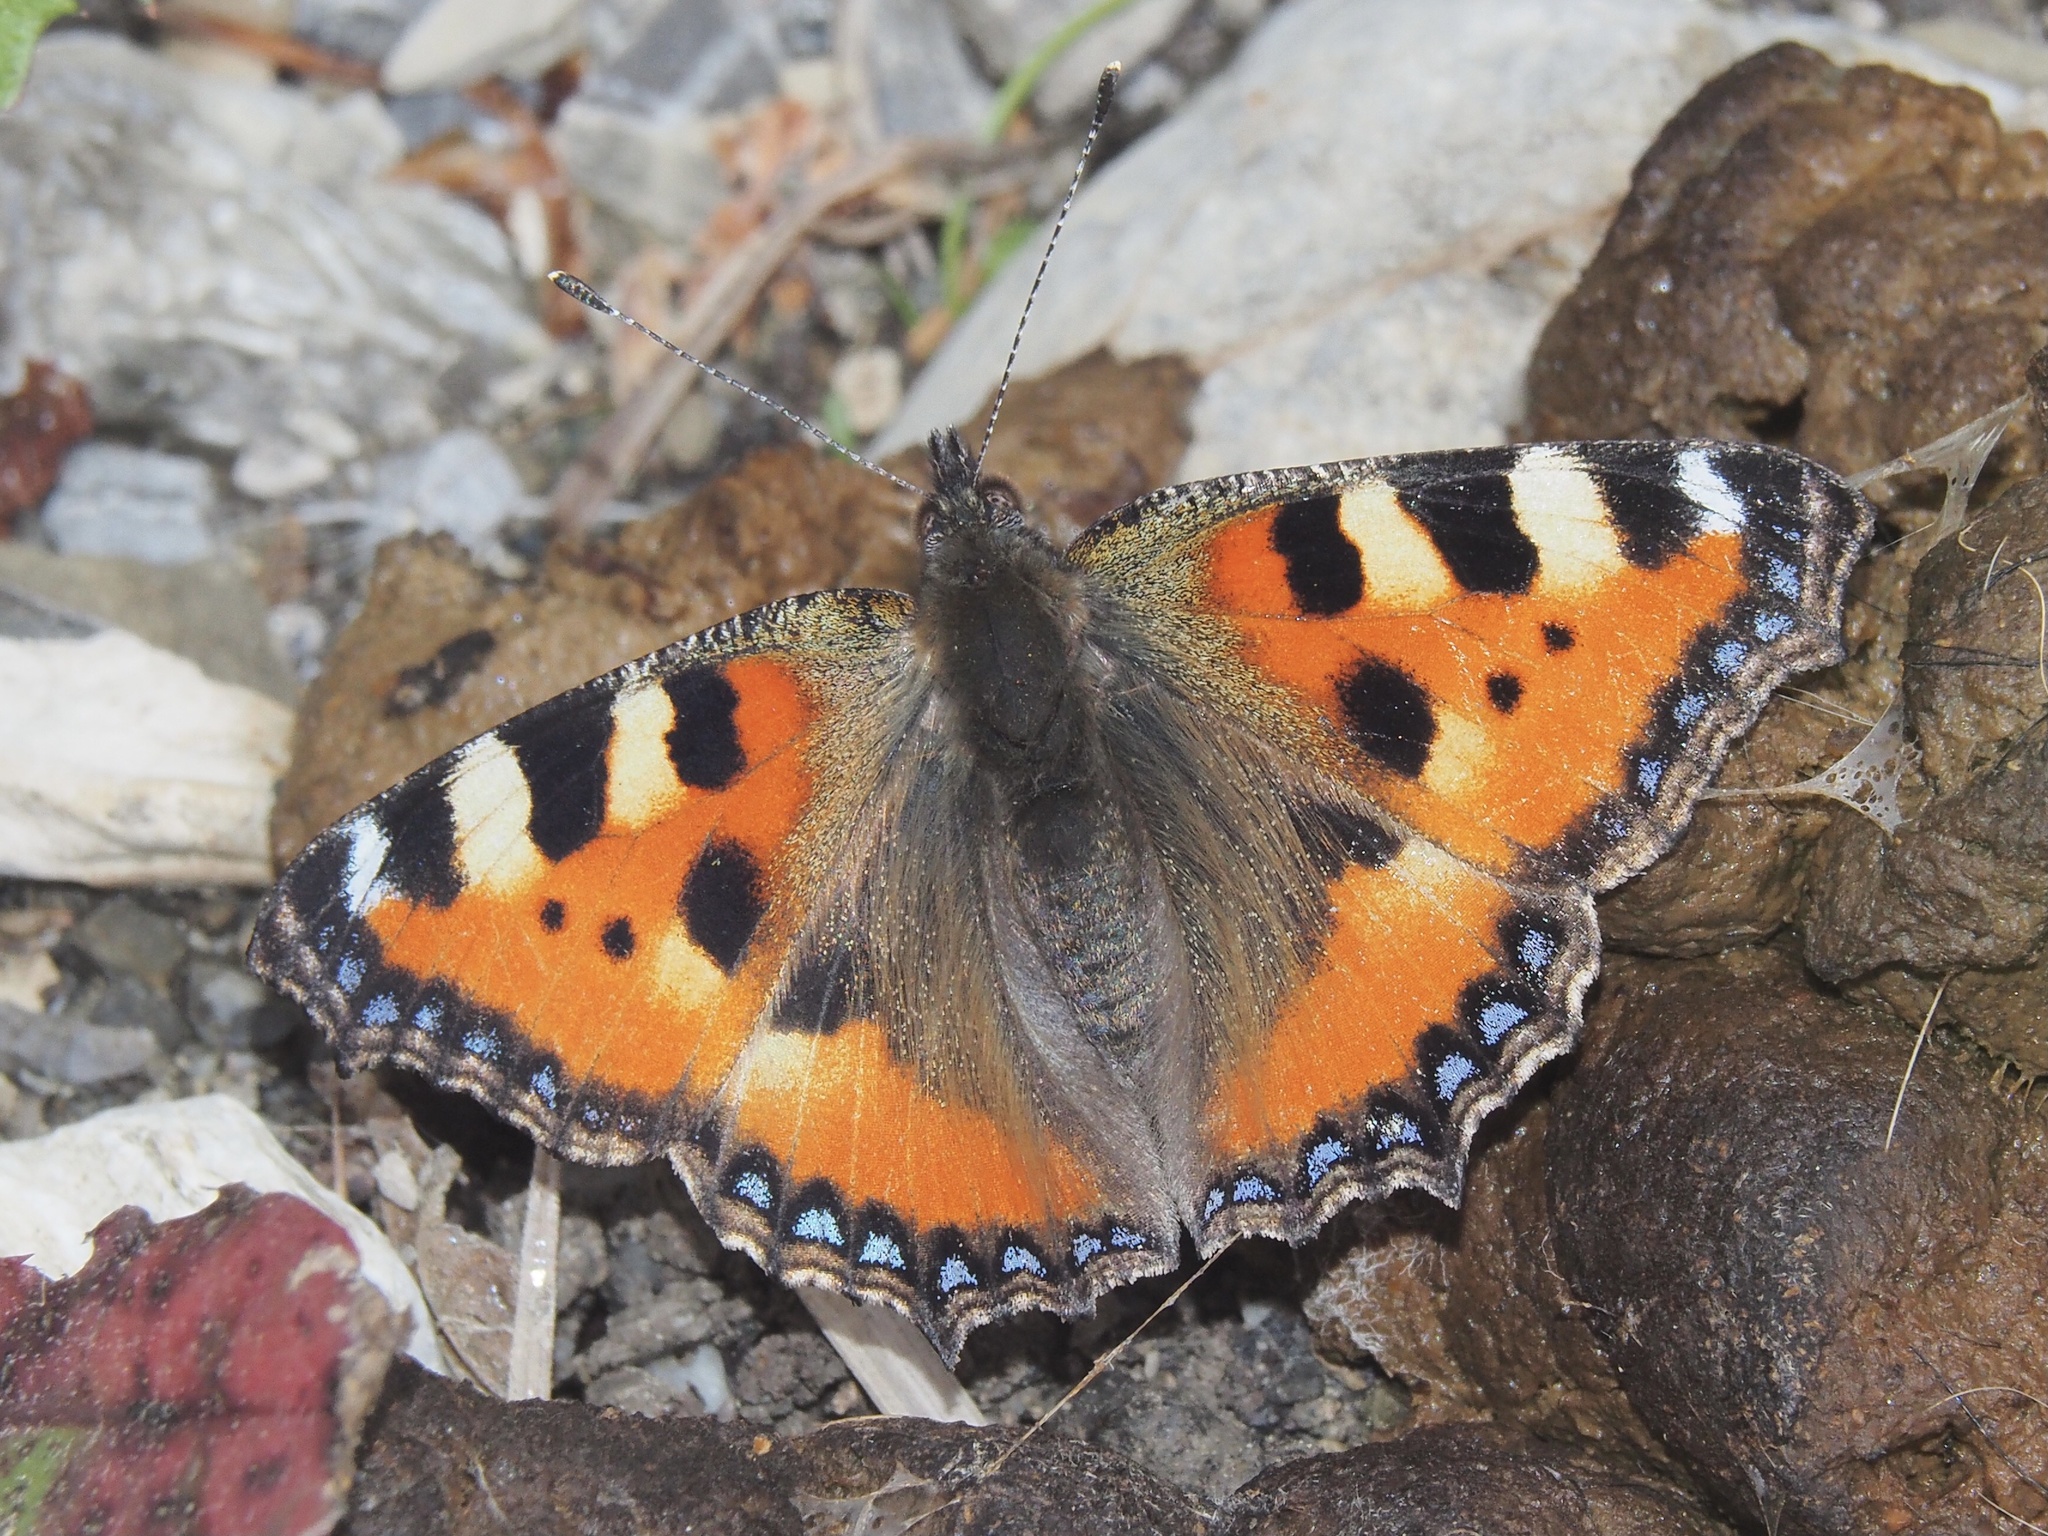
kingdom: Animalia
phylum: Arthropoda
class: Insecta
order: Lepidoptera
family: Nymphalidae
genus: Aglais
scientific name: Aglais urticae
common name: Small tortoiseshell
